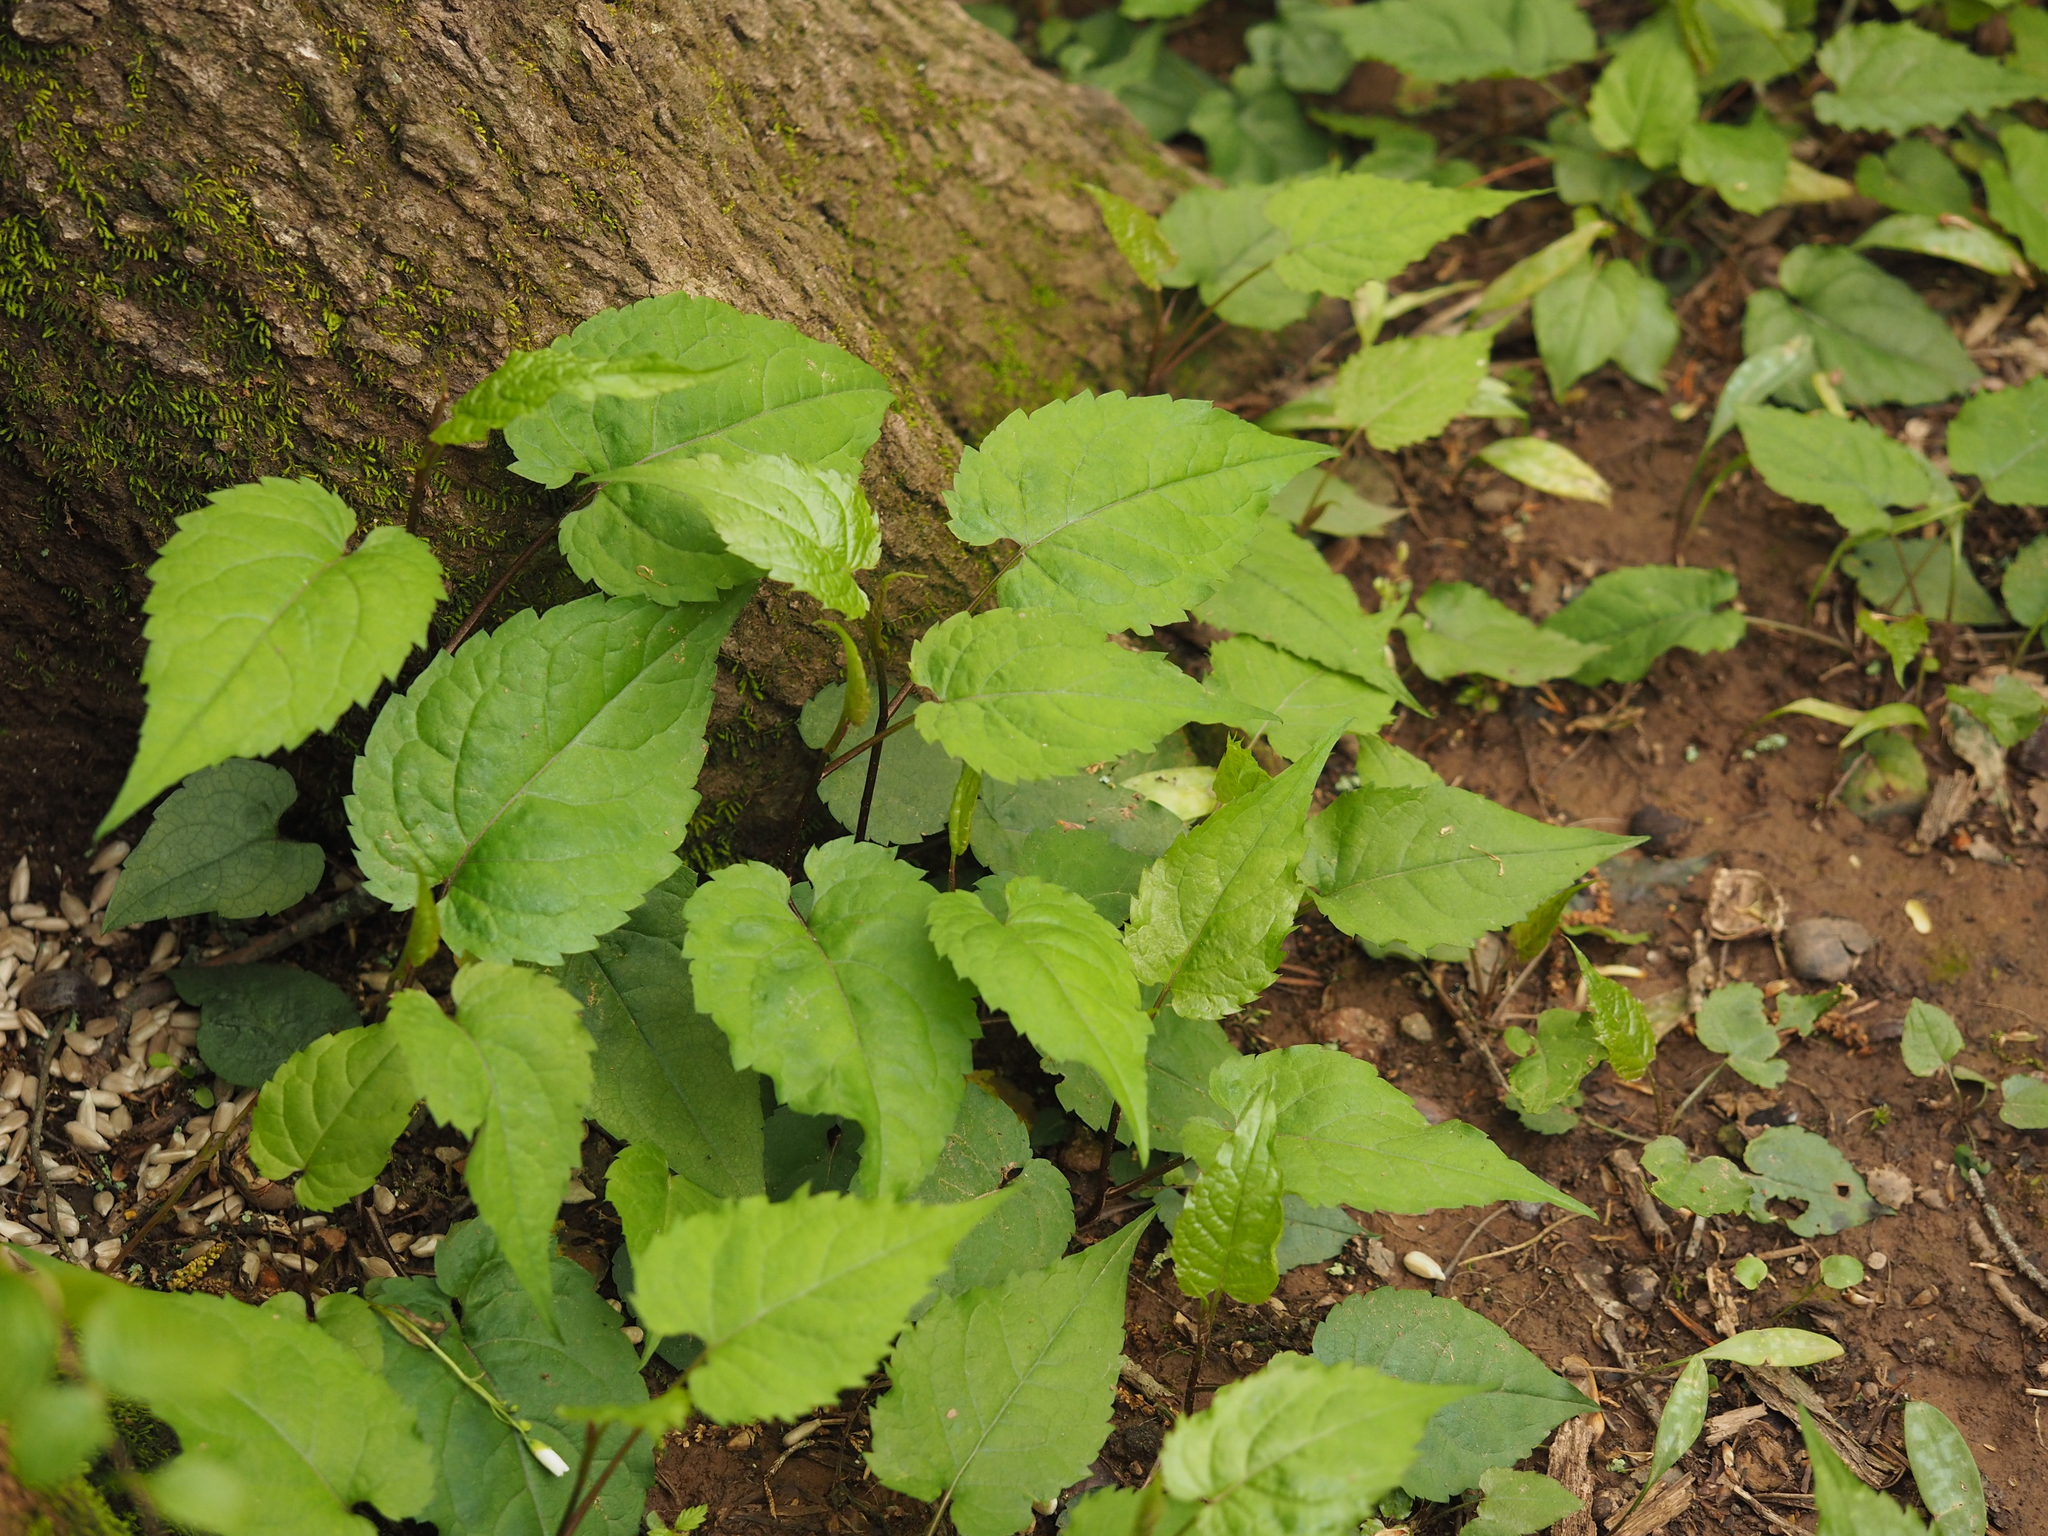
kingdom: Plantae
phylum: Tracheophyta
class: Magnoliopsida
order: Asterales
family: Asteraceae
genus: Eurybia
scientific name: Eurybia divaricata
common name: White wood aster
